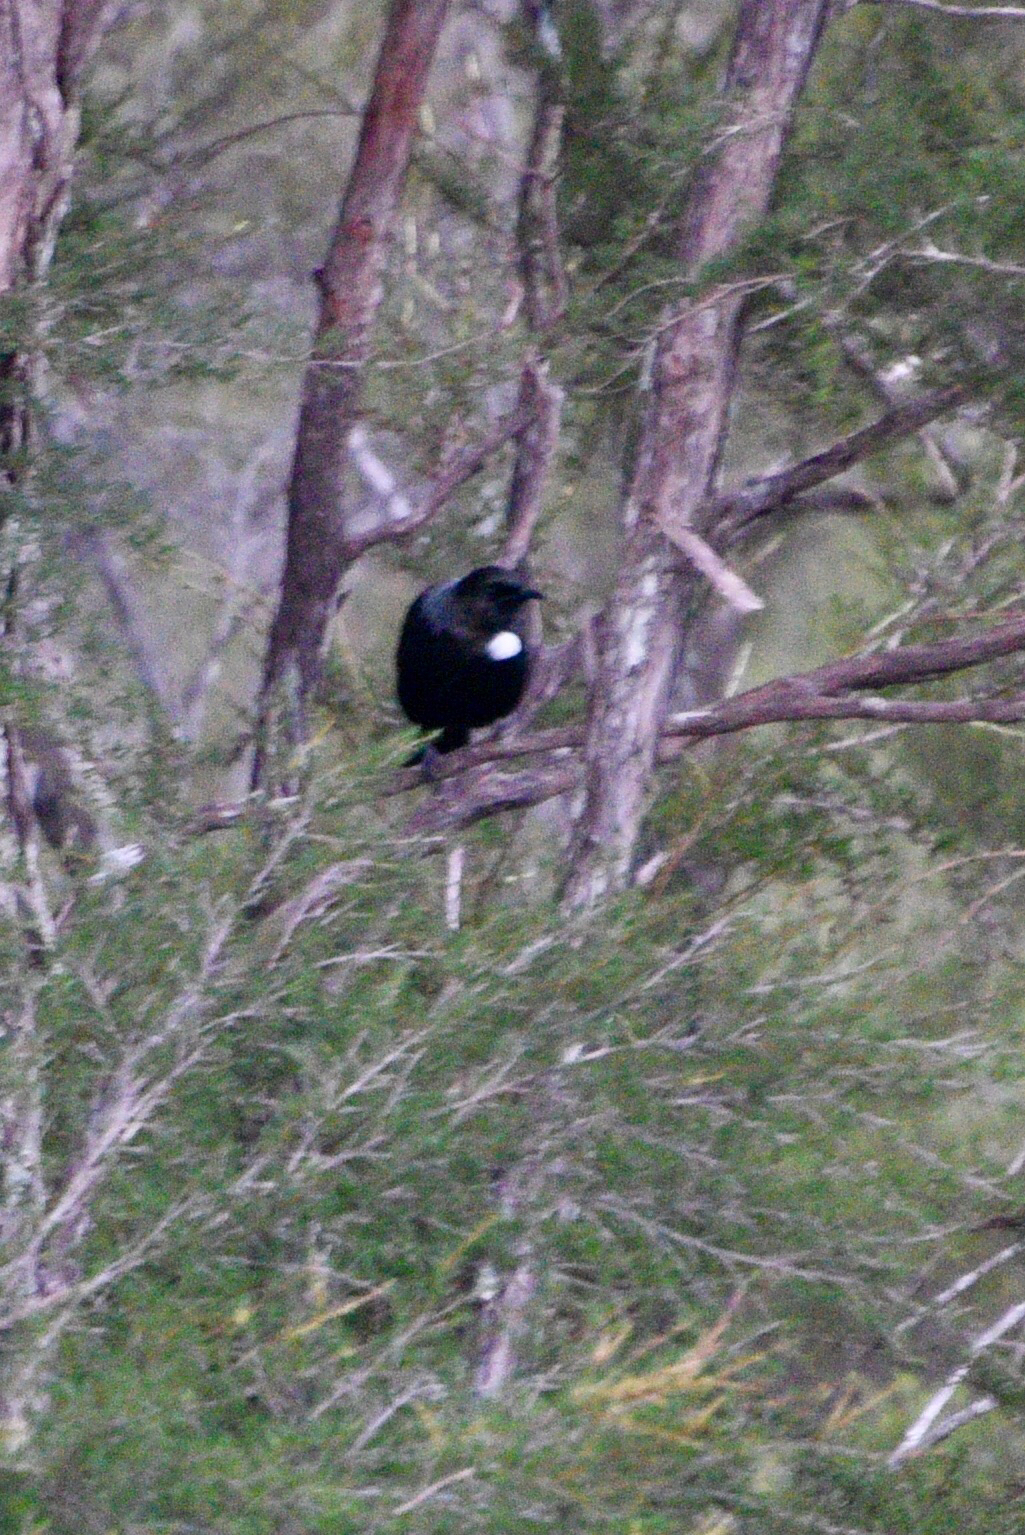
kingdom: Animalia
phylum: Chordata
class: Aves
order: Passeriformes
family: Meliphagidae
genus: Prosthemadera
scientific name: Prosthemadera novaeseelandiae
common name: Tui
